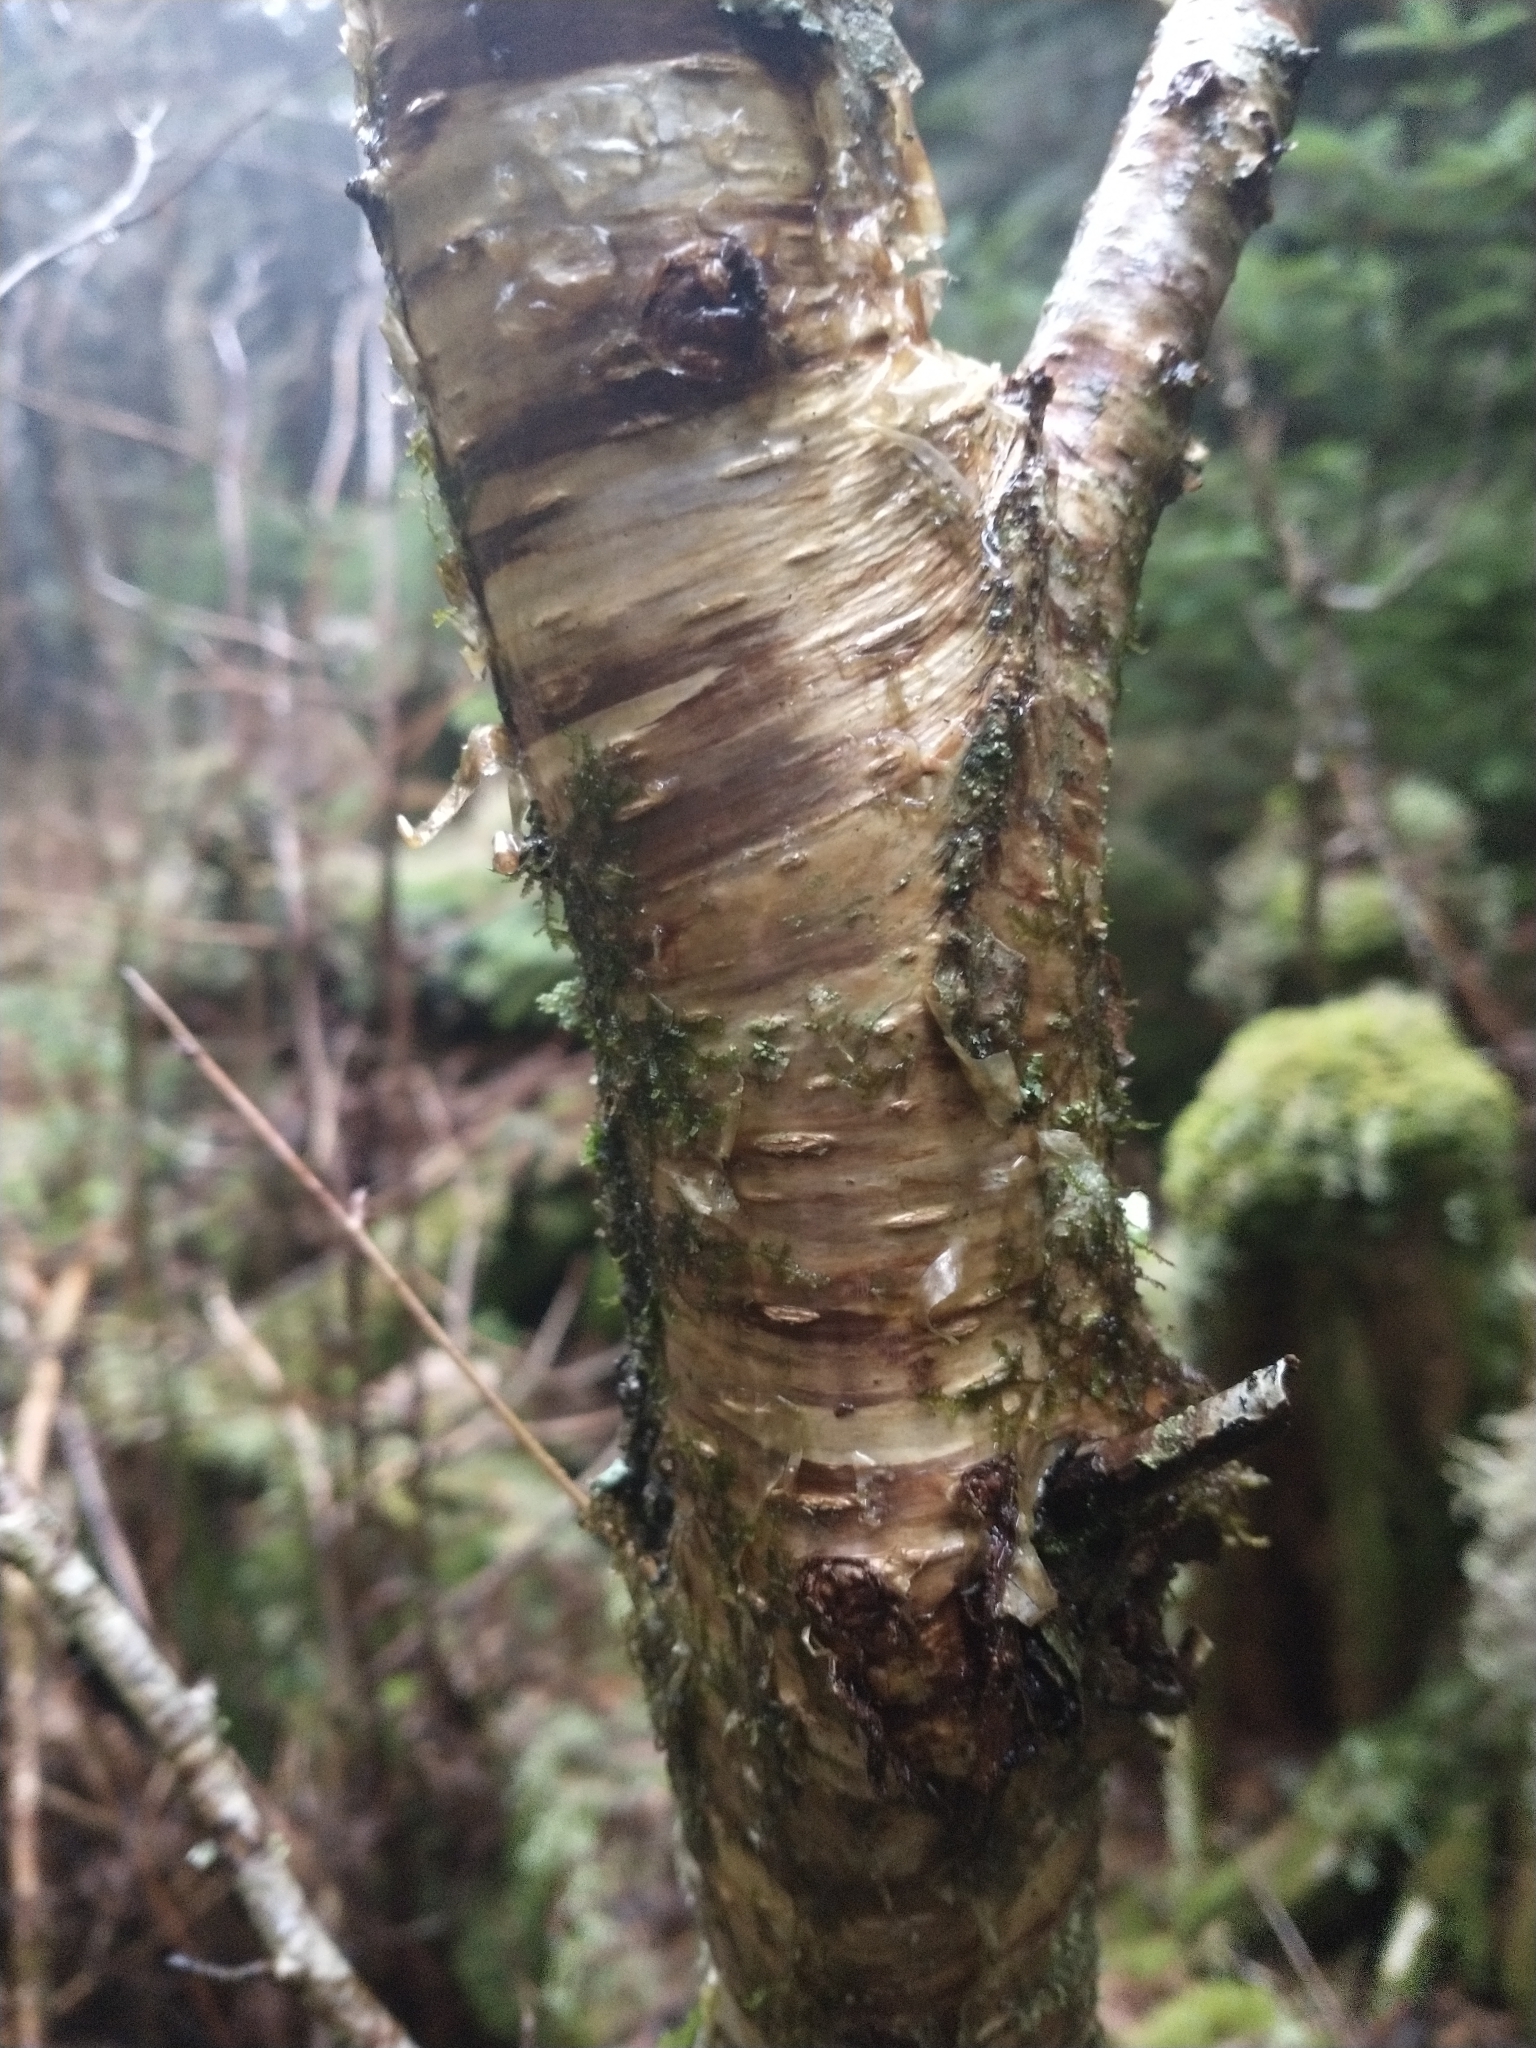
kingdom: Plantae
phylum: Tracheophyta
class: Magnoliopsida
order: Fagales
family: Betulaceae
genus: Betula
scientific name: Betula alleghaniensis
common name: Yellow birch
